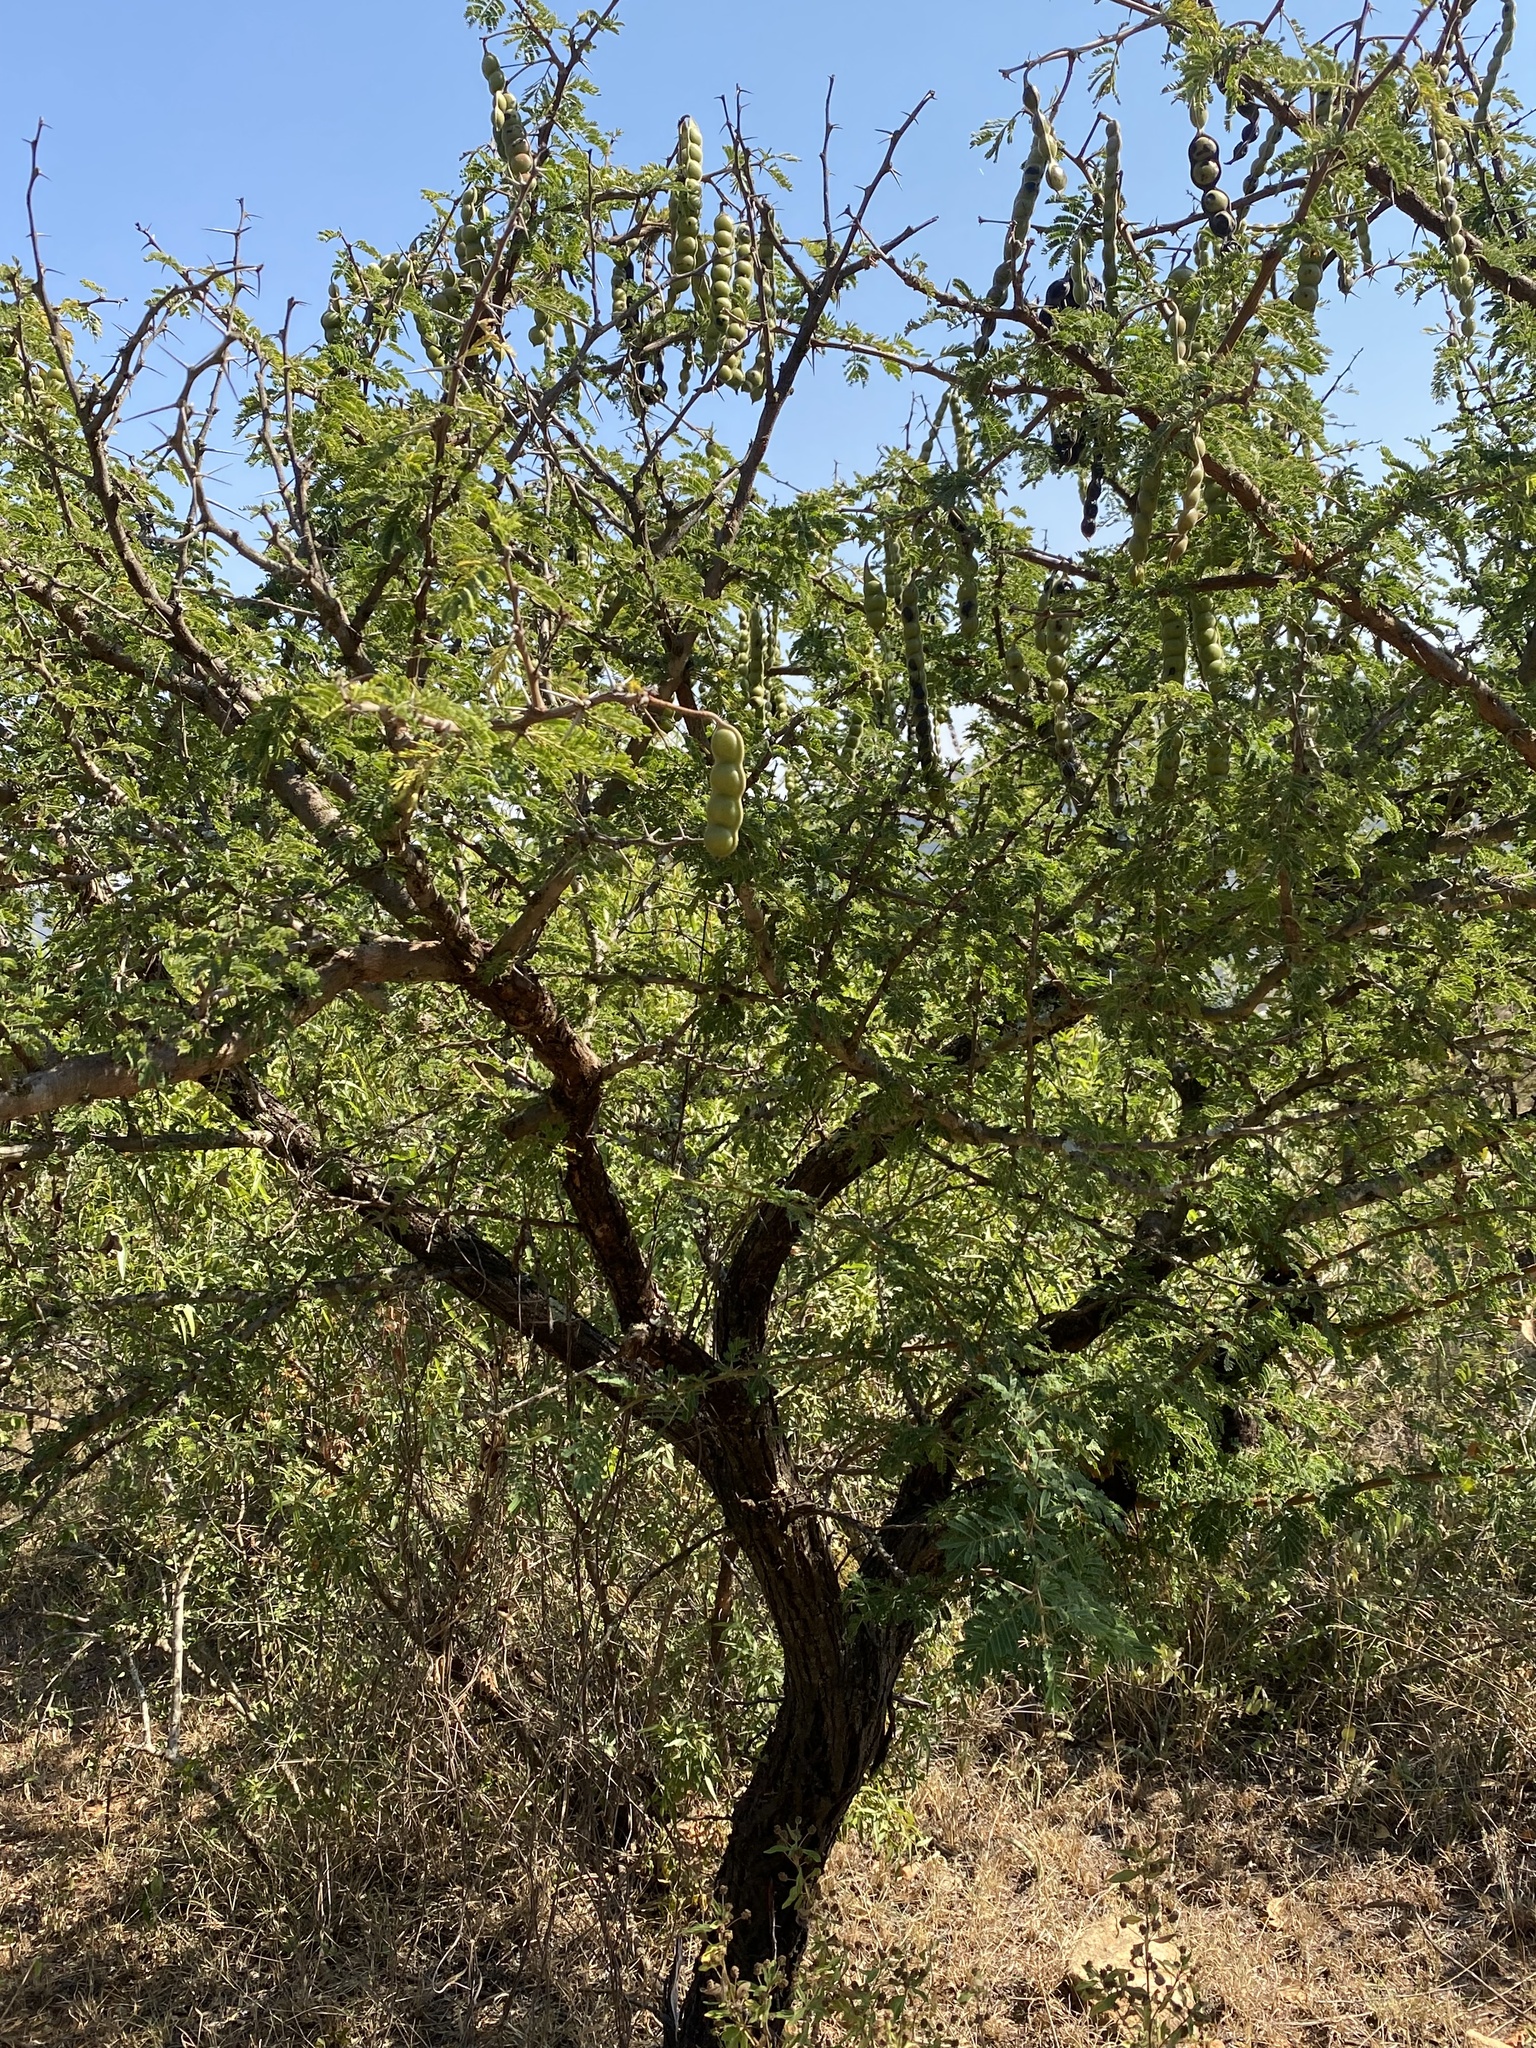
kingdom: Plantae
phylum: Tracheophyta
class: Magnoliopsida
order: Fabales
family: Fabaceae
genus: Vachellia
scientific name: Vachellia nilotica
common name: Arabic gumtree
